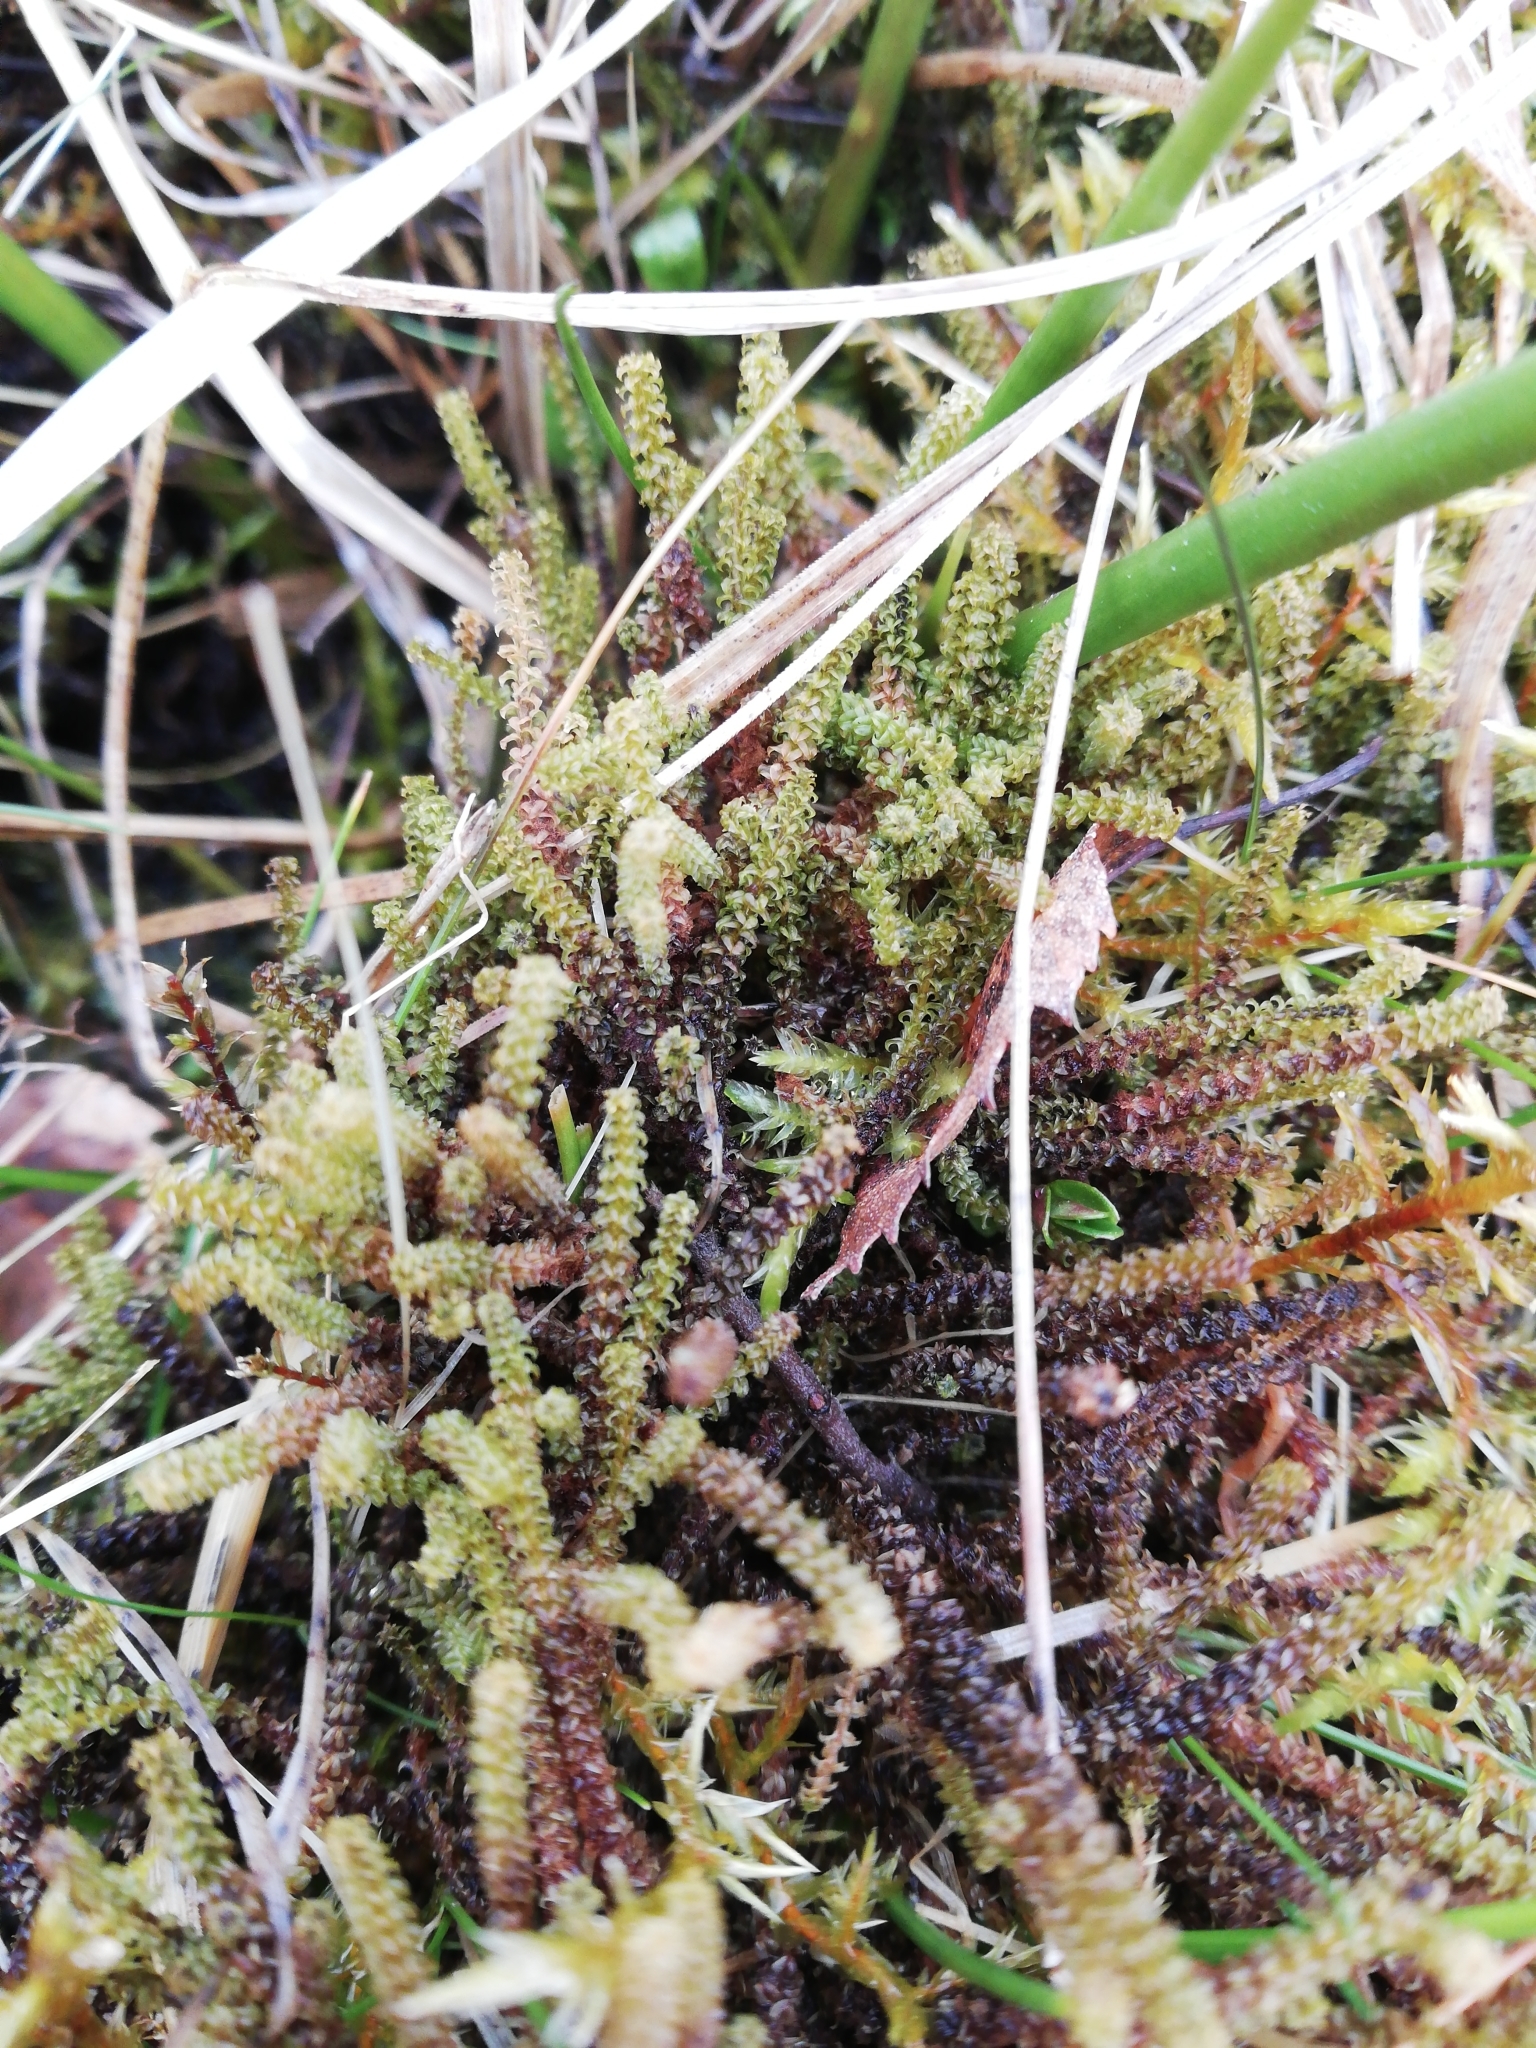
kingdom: Plantae
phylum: Bryophyta
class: Bryopsida
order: Splachnales
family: Meesiaceae
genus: Paludella
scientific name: Paludella squarrosa
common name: Tufted fen moss
